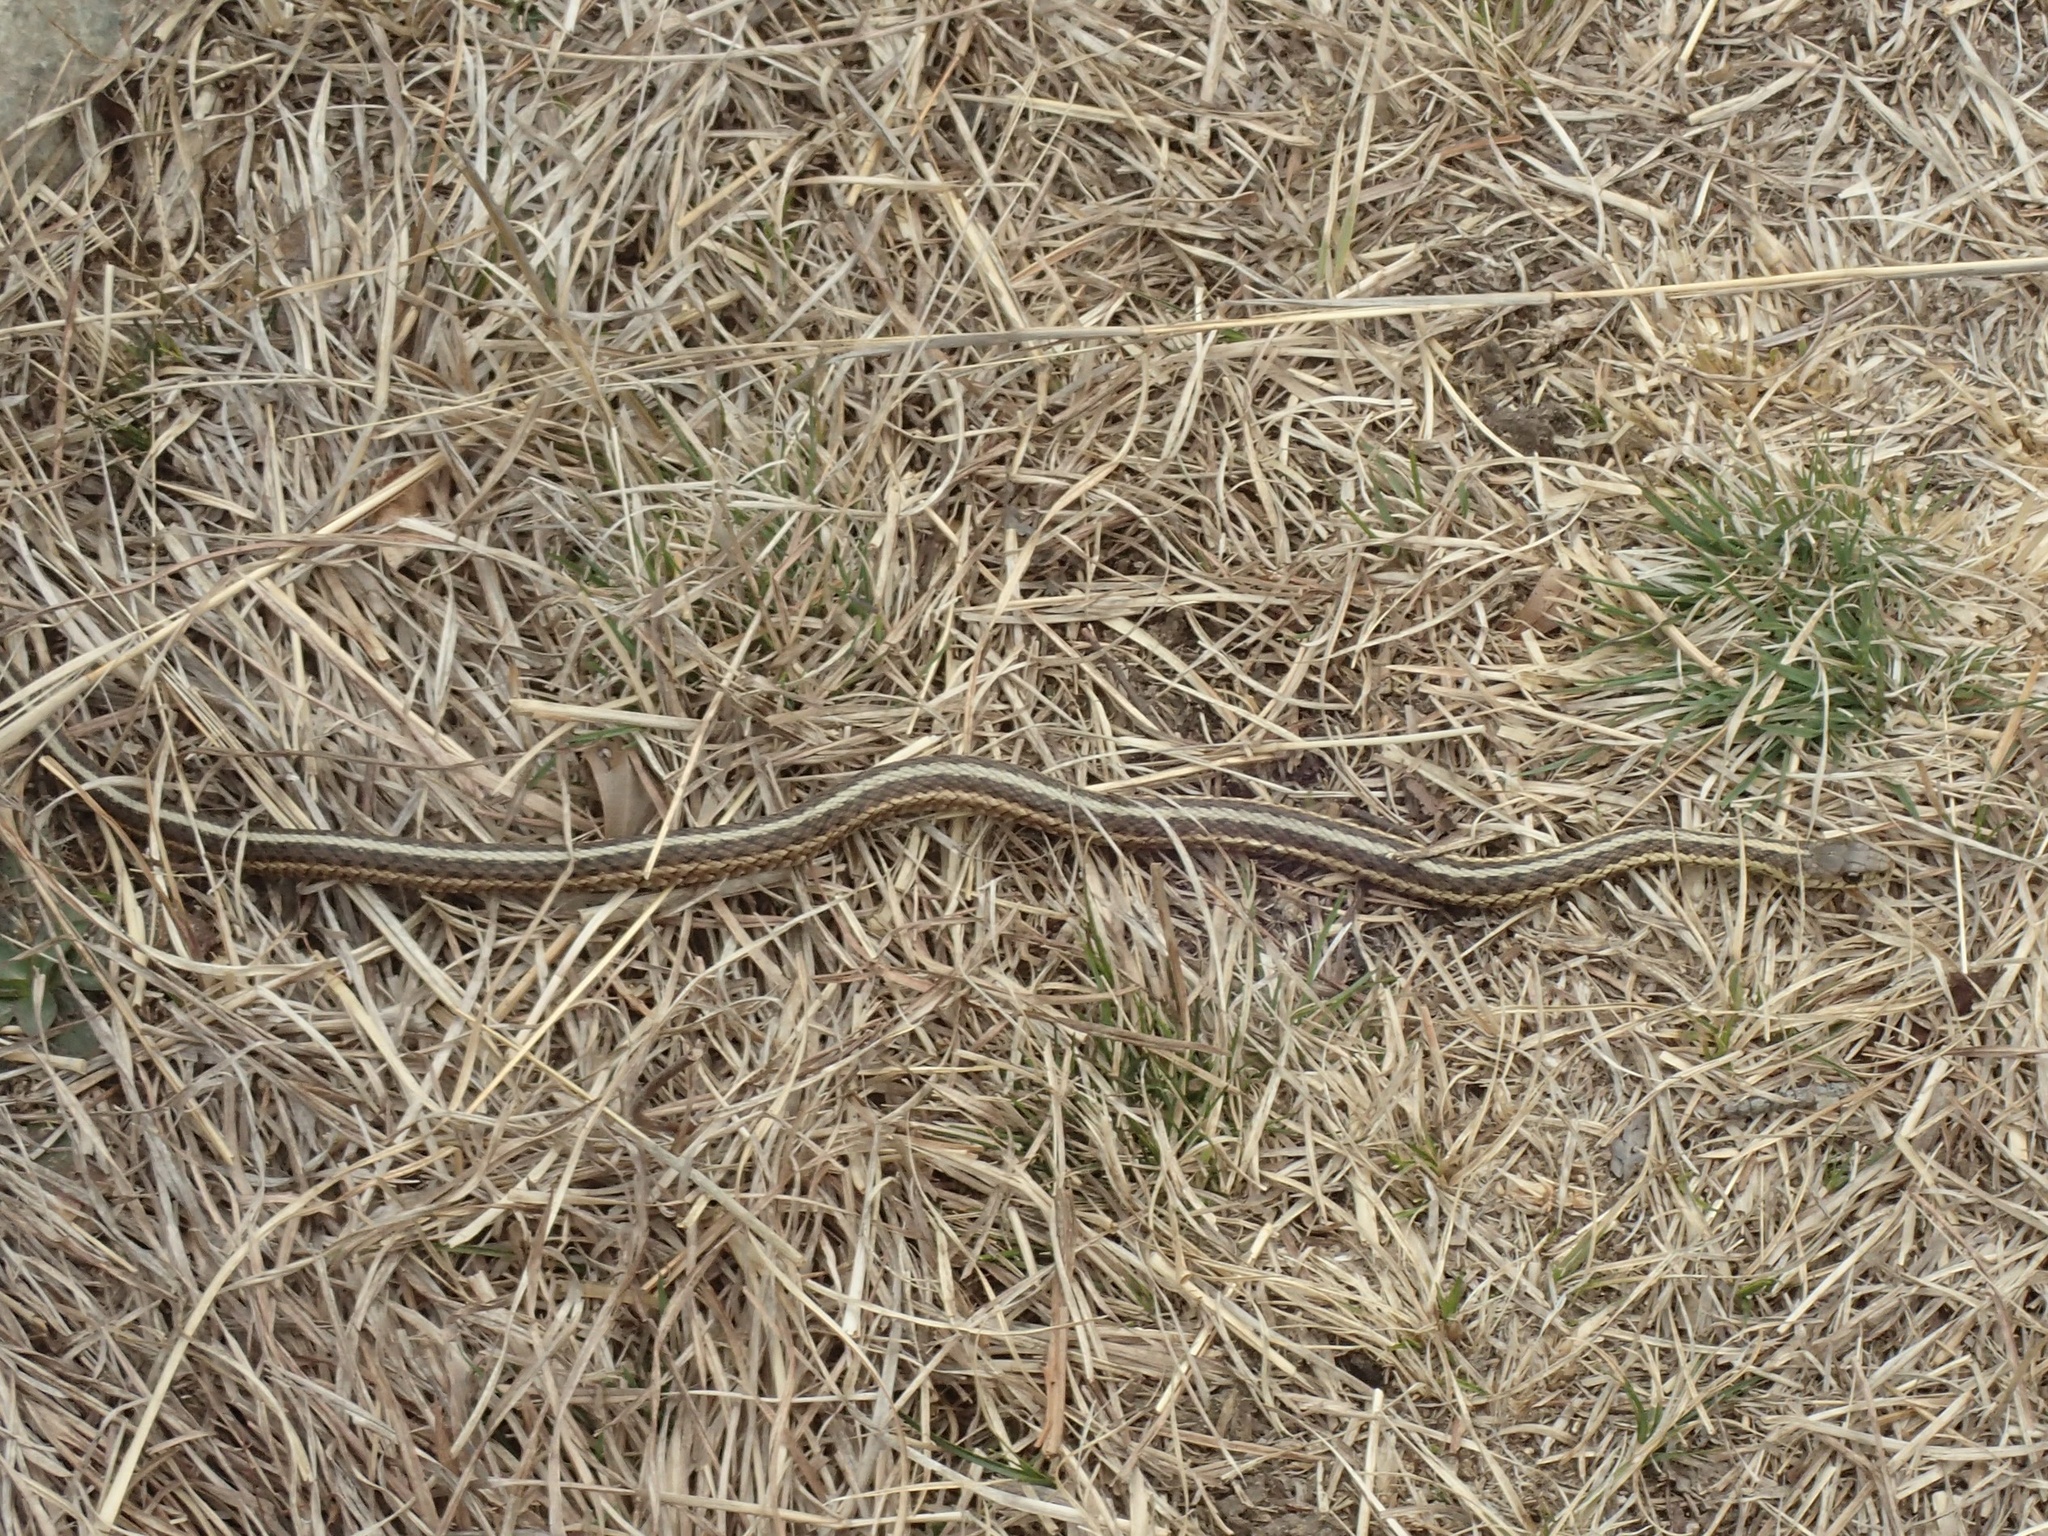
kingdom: Animalia
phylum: Chordata
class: Squamata
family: Colubridae
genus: Thamnophis
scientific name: Thamnophis sirtalis
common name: Common garter snake
